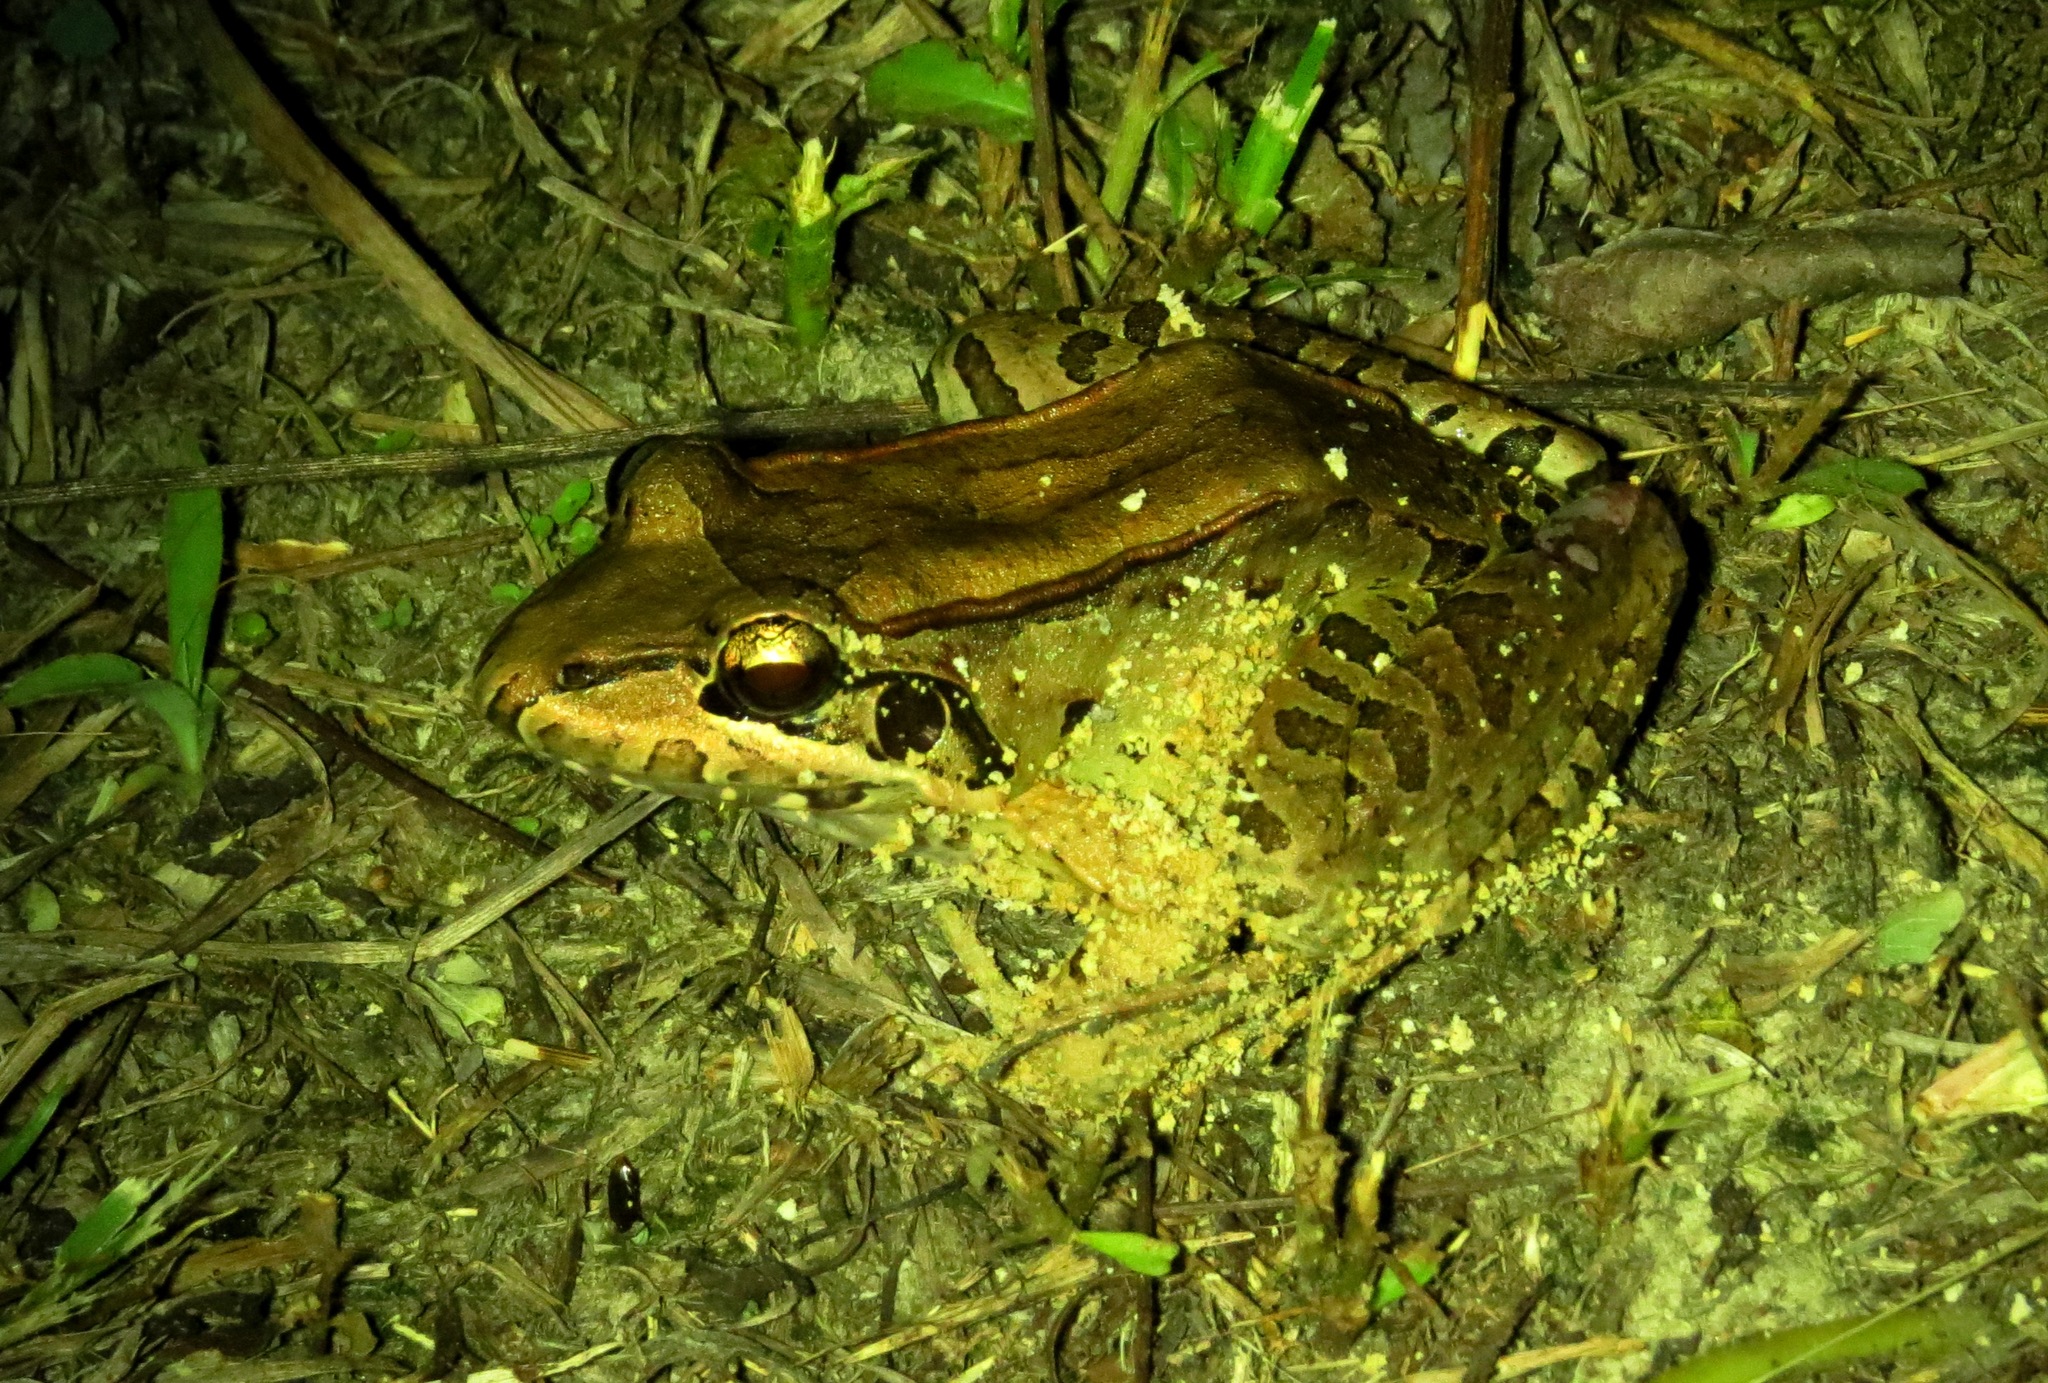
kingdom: Animalia
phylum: Chordata
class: Amphibia
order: Anura
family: Leptodactylidae
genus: Leptodactylus
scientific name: Leptodactylus guianensis
